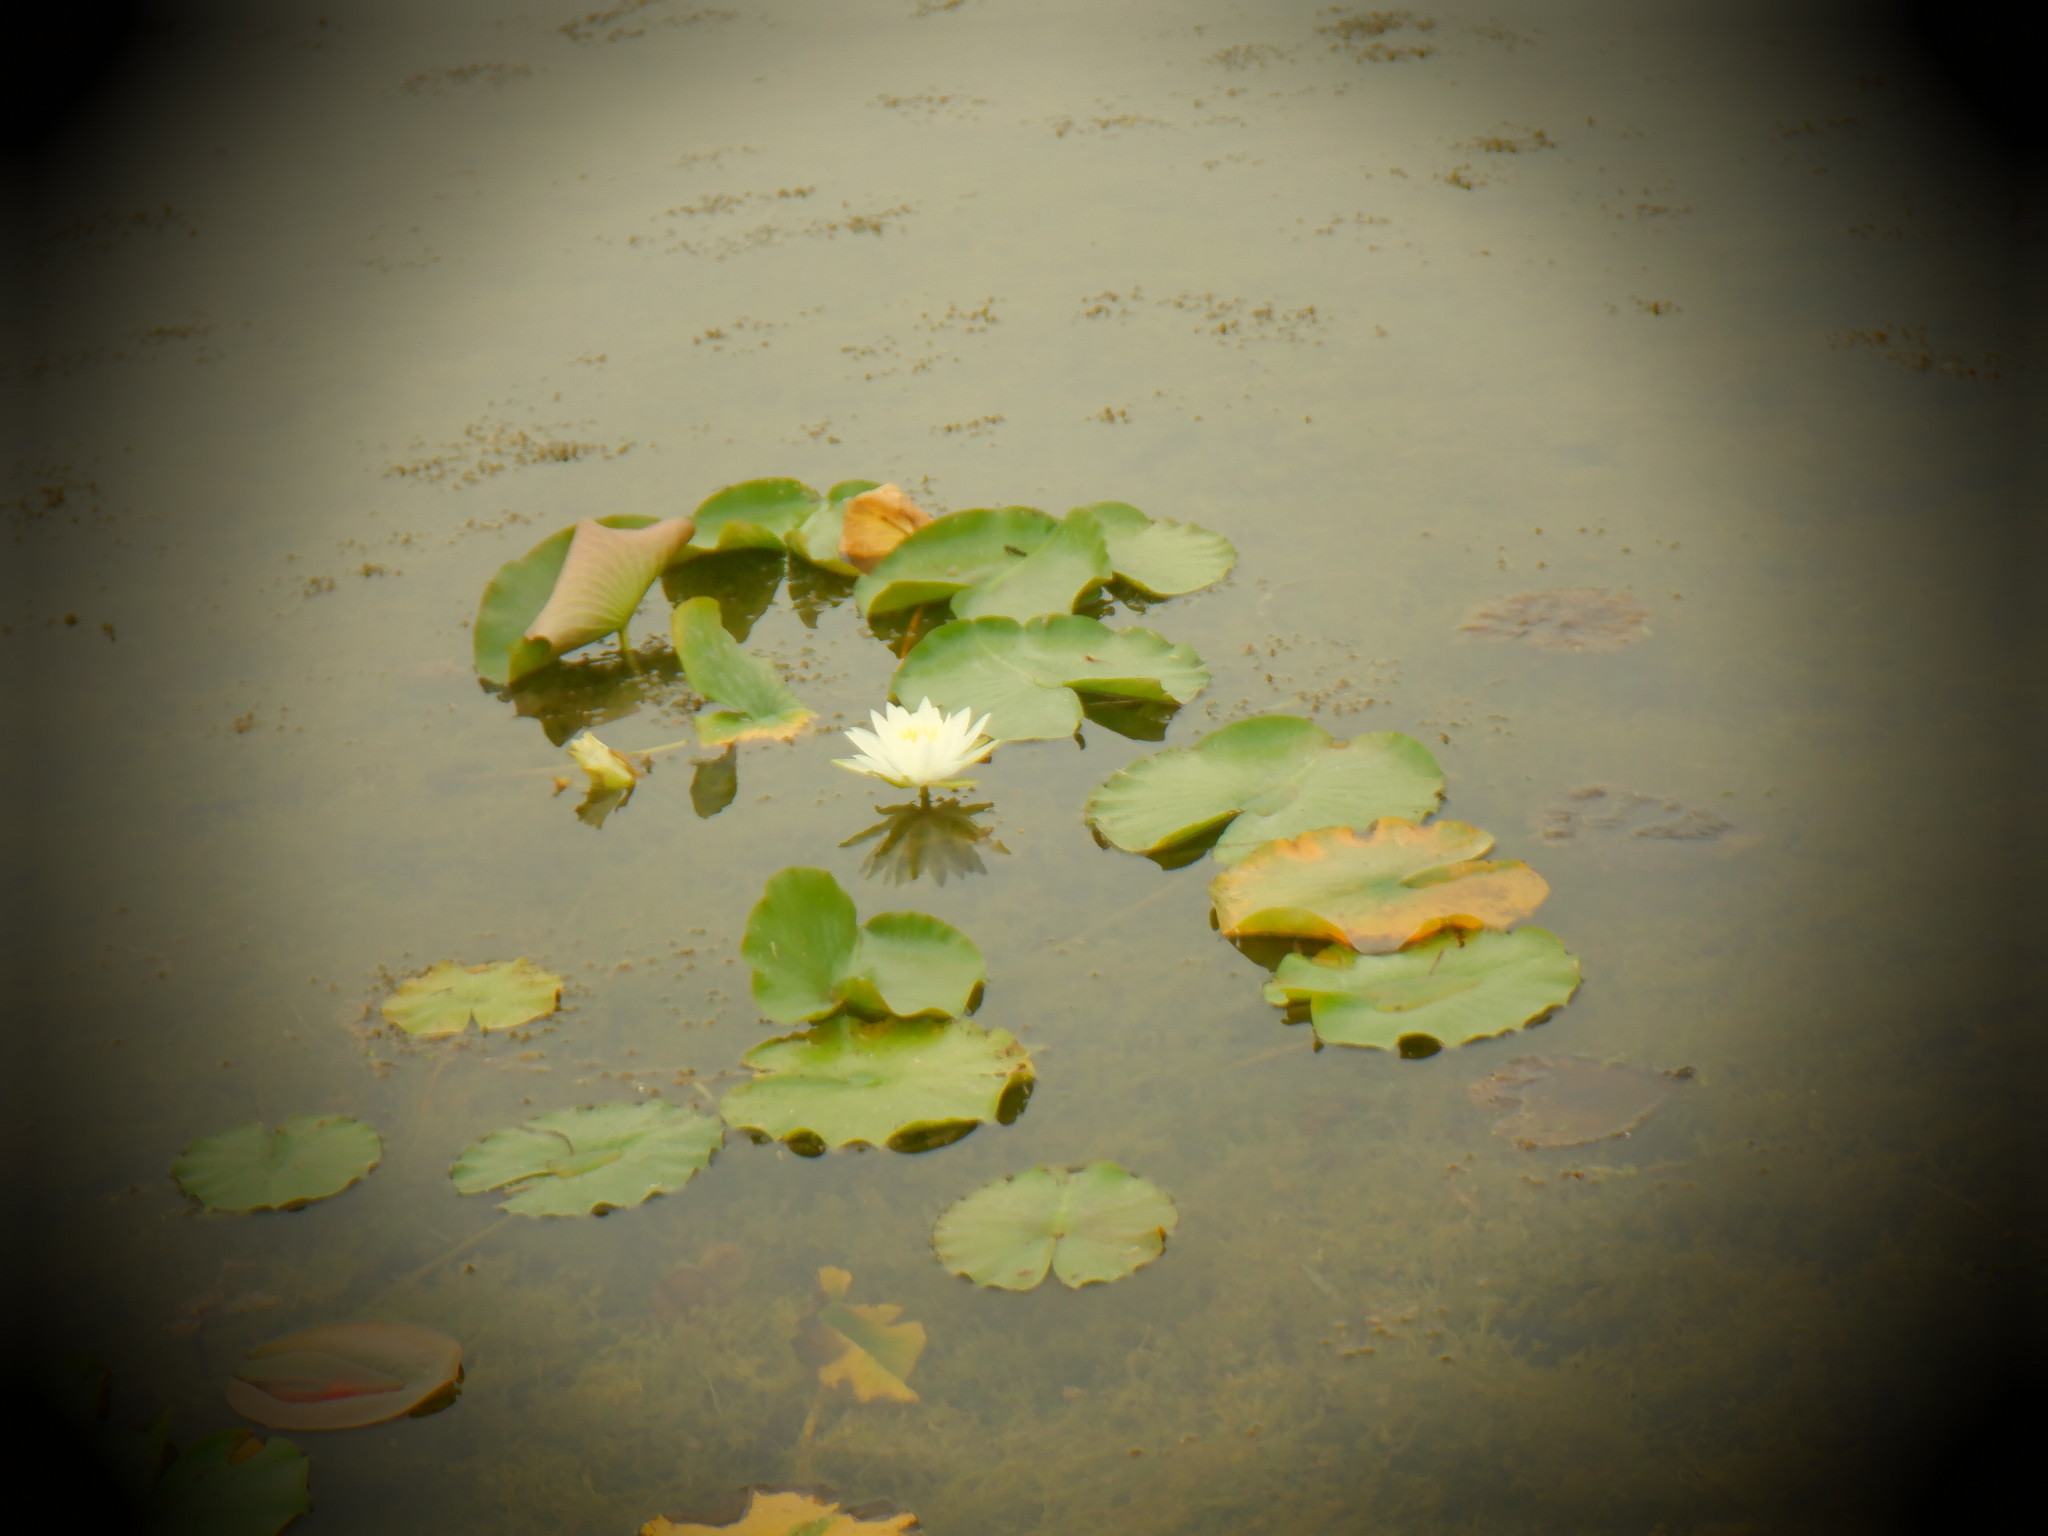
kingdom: Plantae
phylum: Tracheophyta
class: Magnoliopsida
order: Nymphaeales
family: Nymphaeaceae
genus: Nymphaea
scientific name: Nymphaea odorata
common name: Fragrant water-lily
